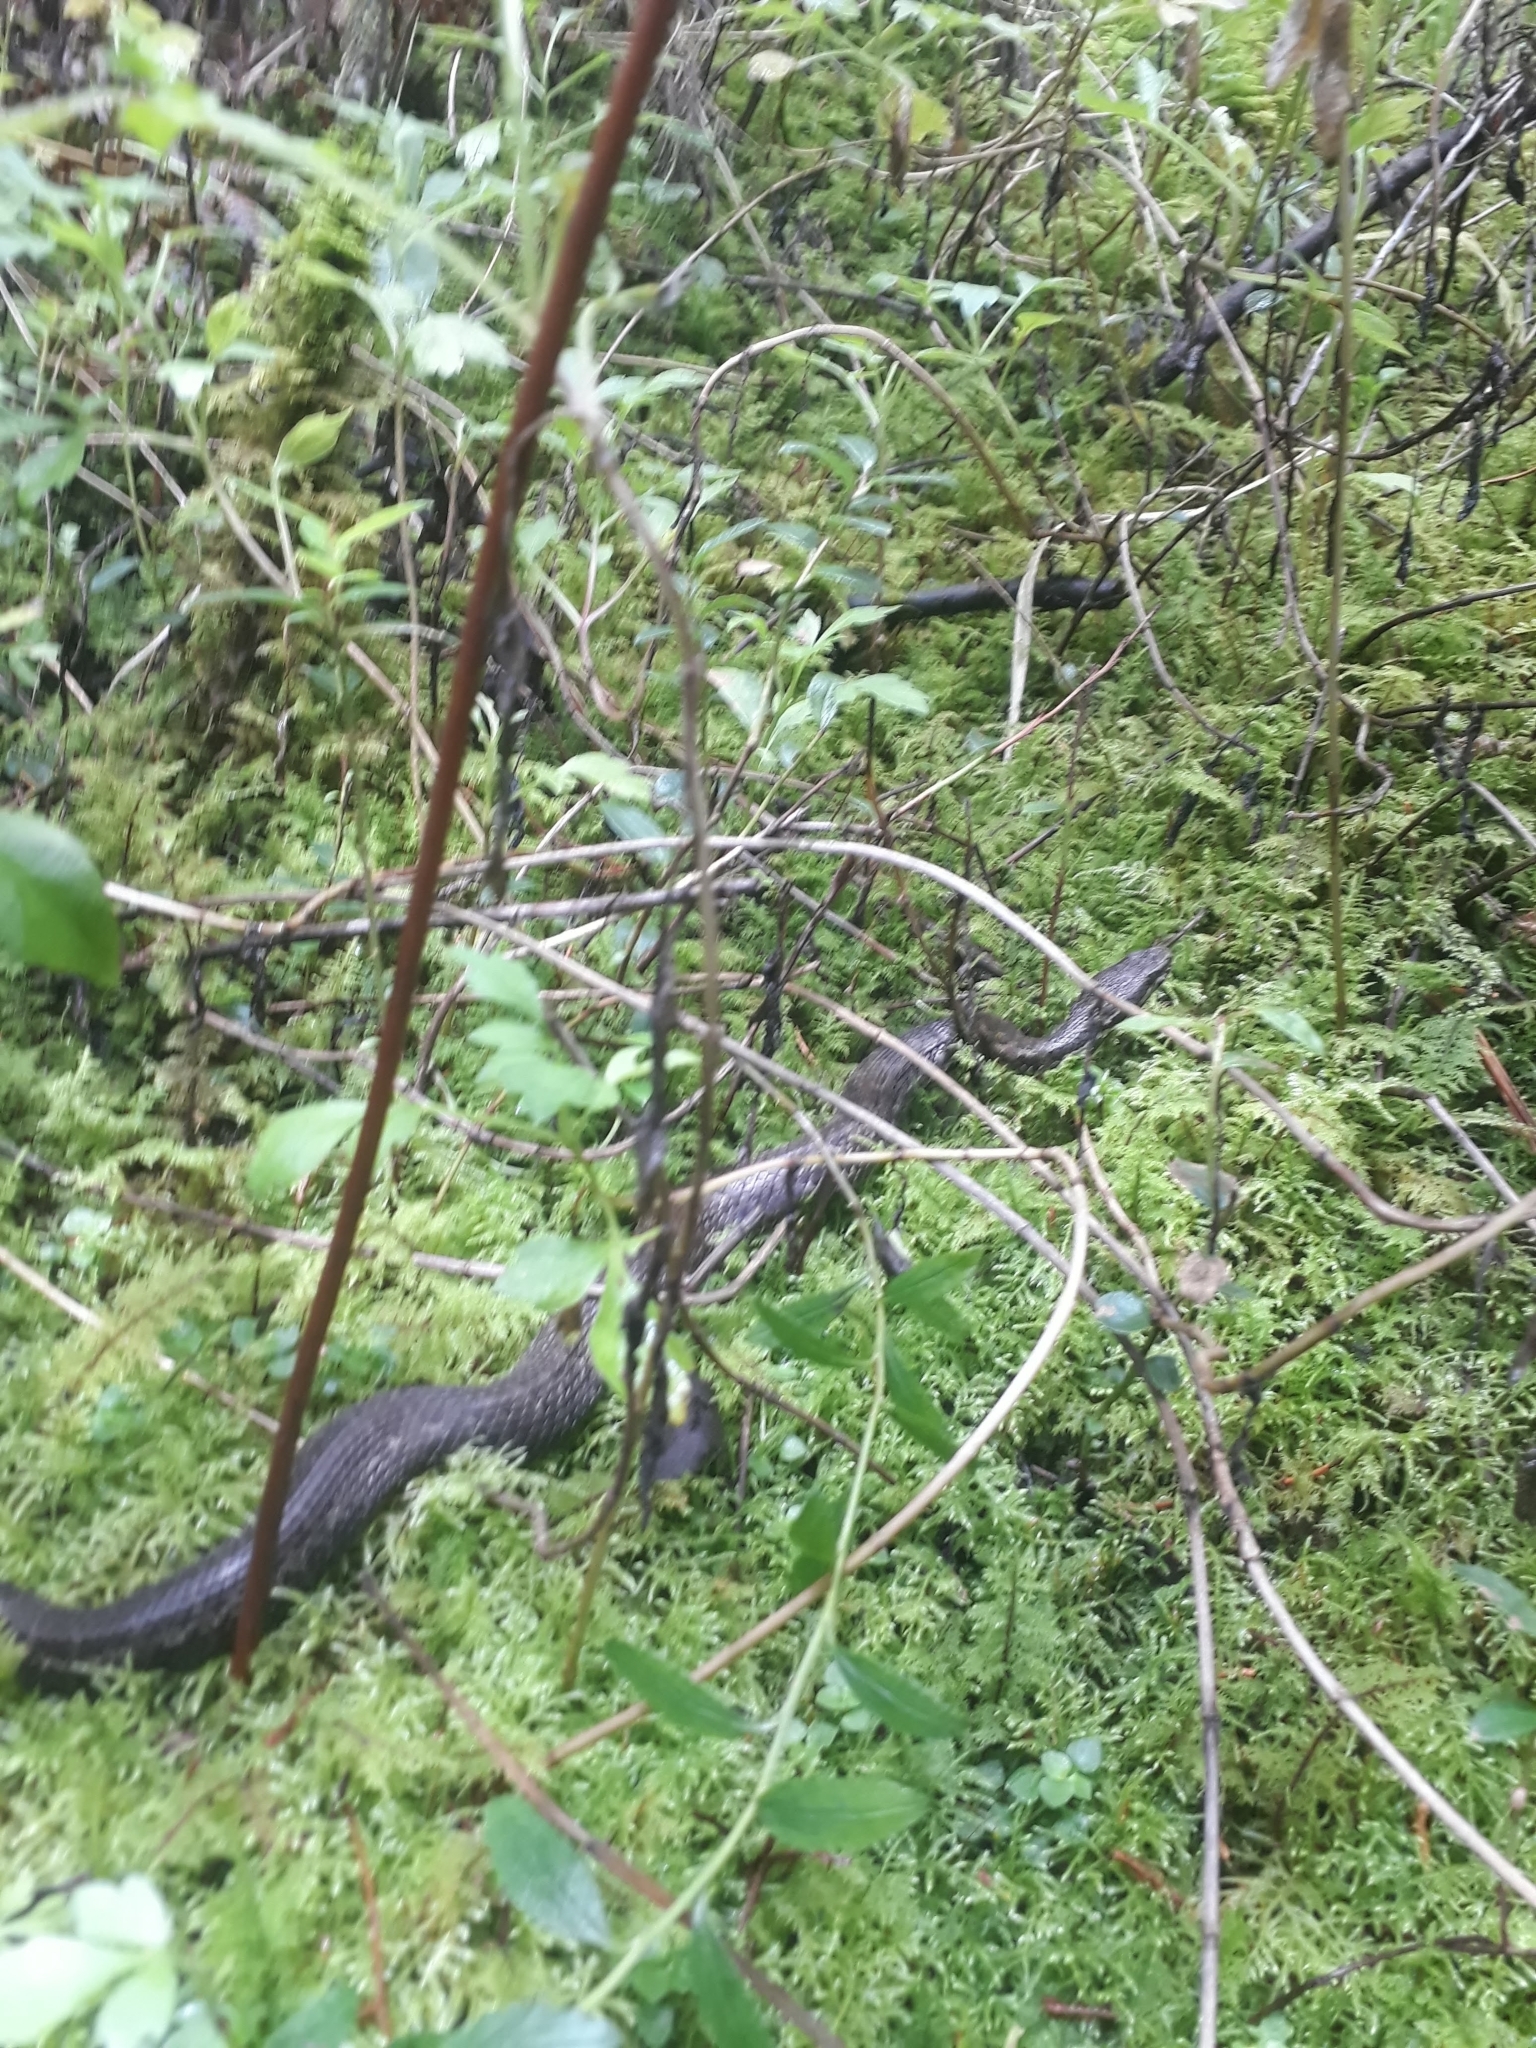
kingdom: Animalia
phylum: Chordata
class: Squamata
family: Viperidae
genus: Cerrophidion
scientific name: Cerrophidion godmani
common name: Godman's montane pit viper
